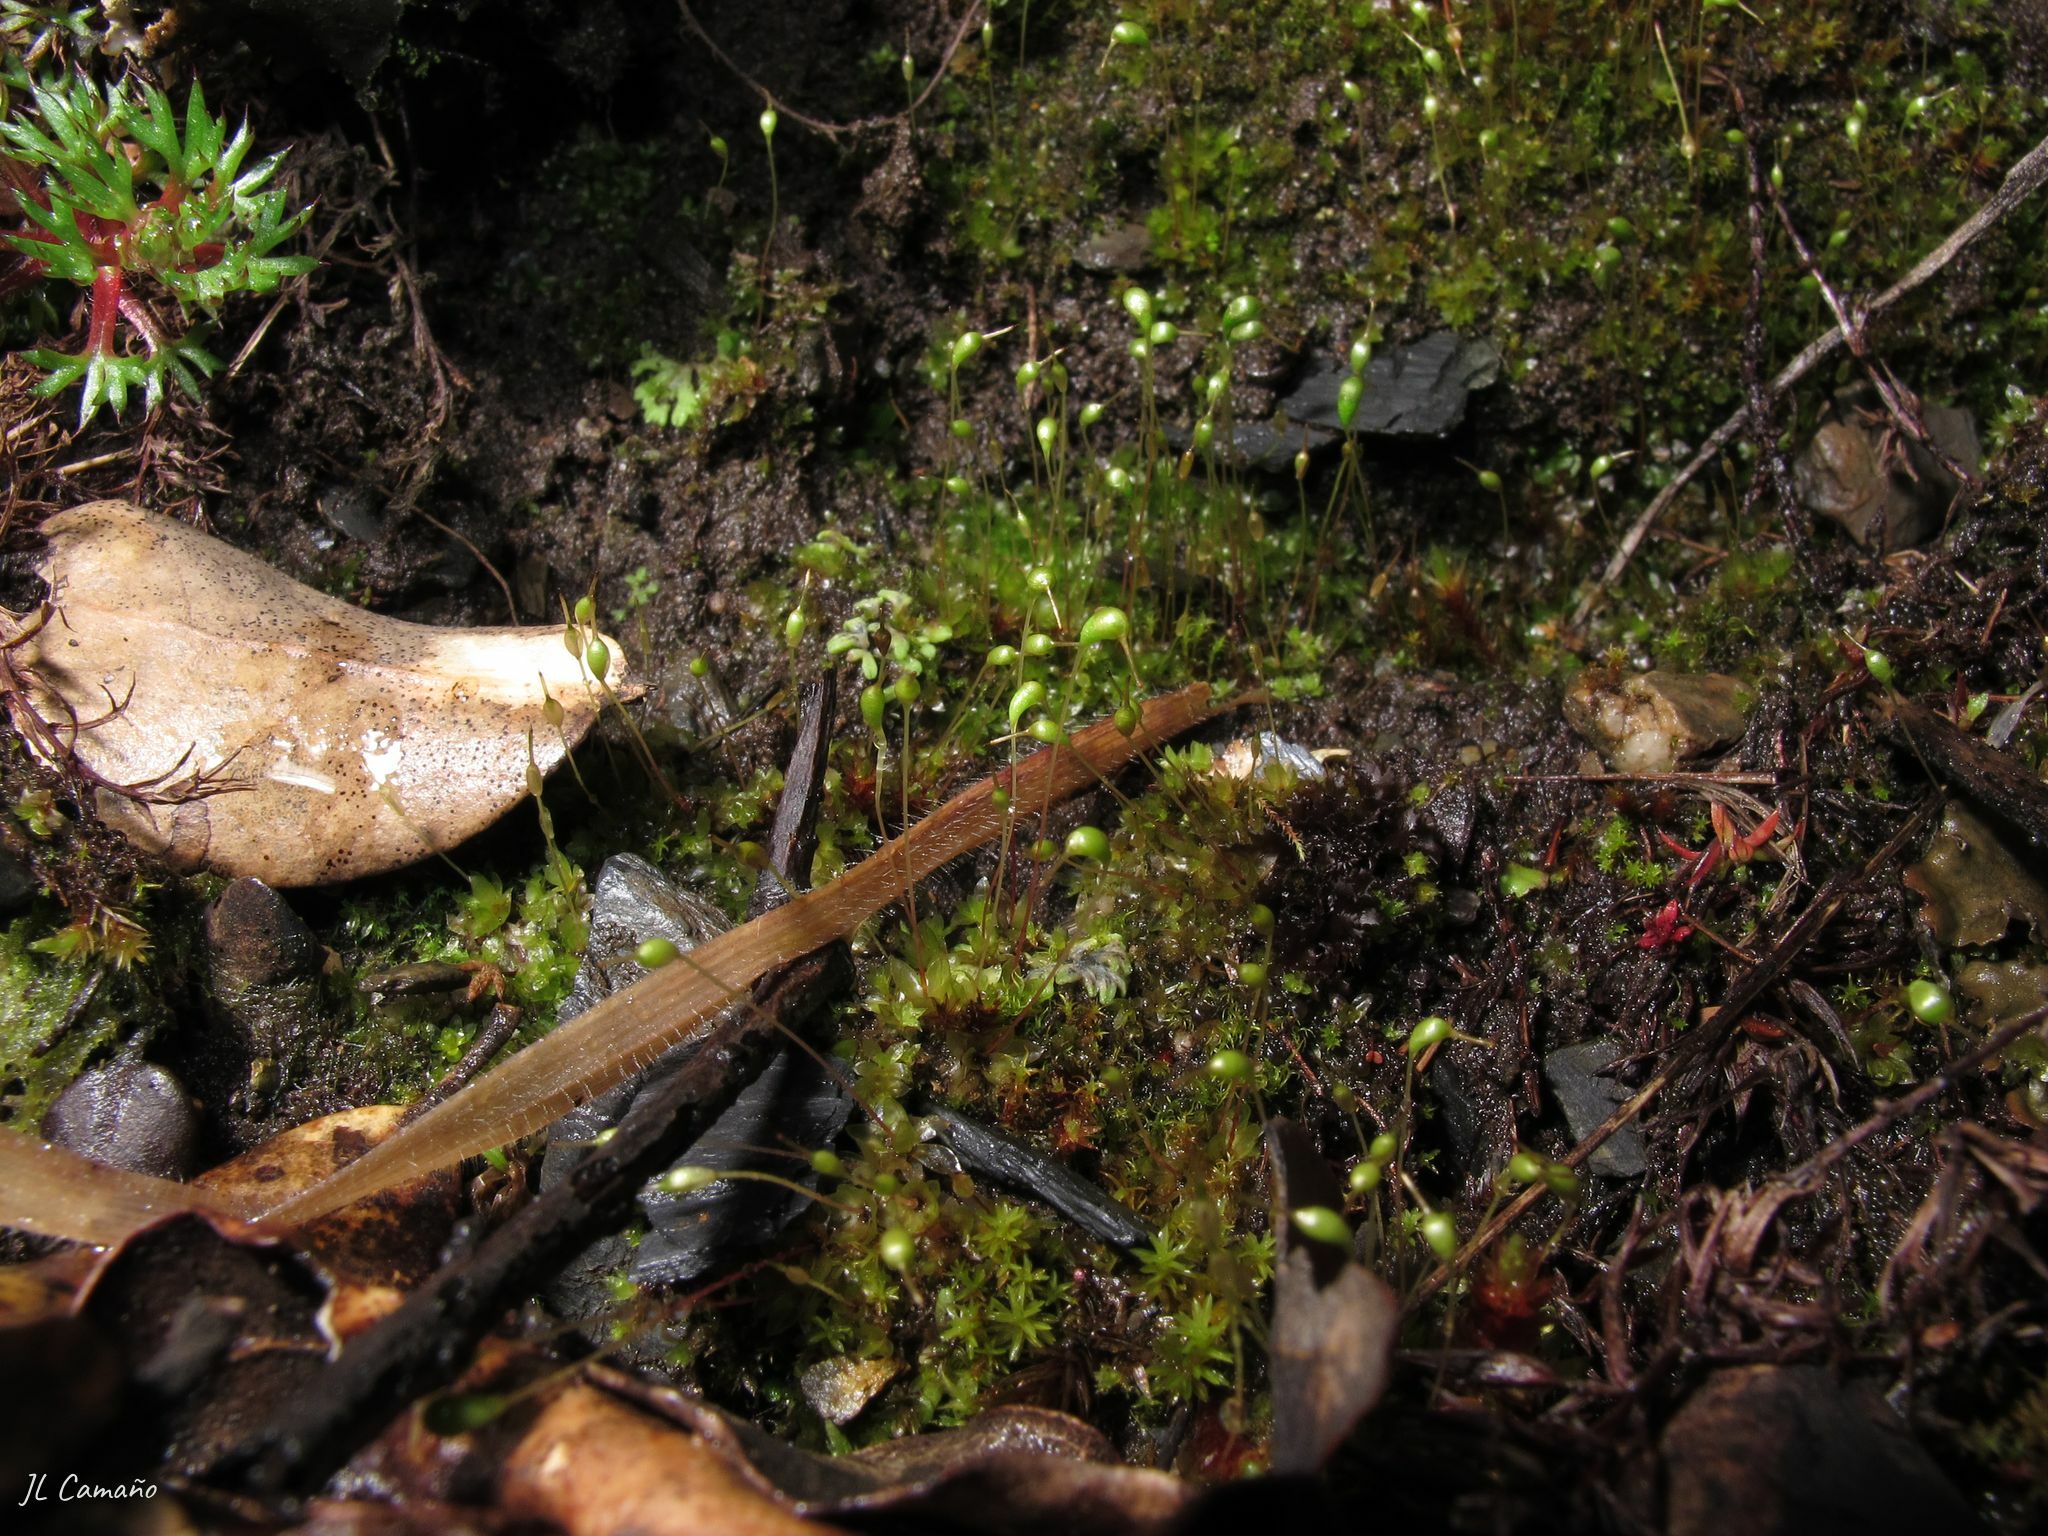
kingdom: Plantae
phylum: Bryophyta
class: Bryopsida
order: Funariales
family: Funariaceae
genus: Funaria
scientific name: Funaria hygrometrica
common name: Common cord moss
